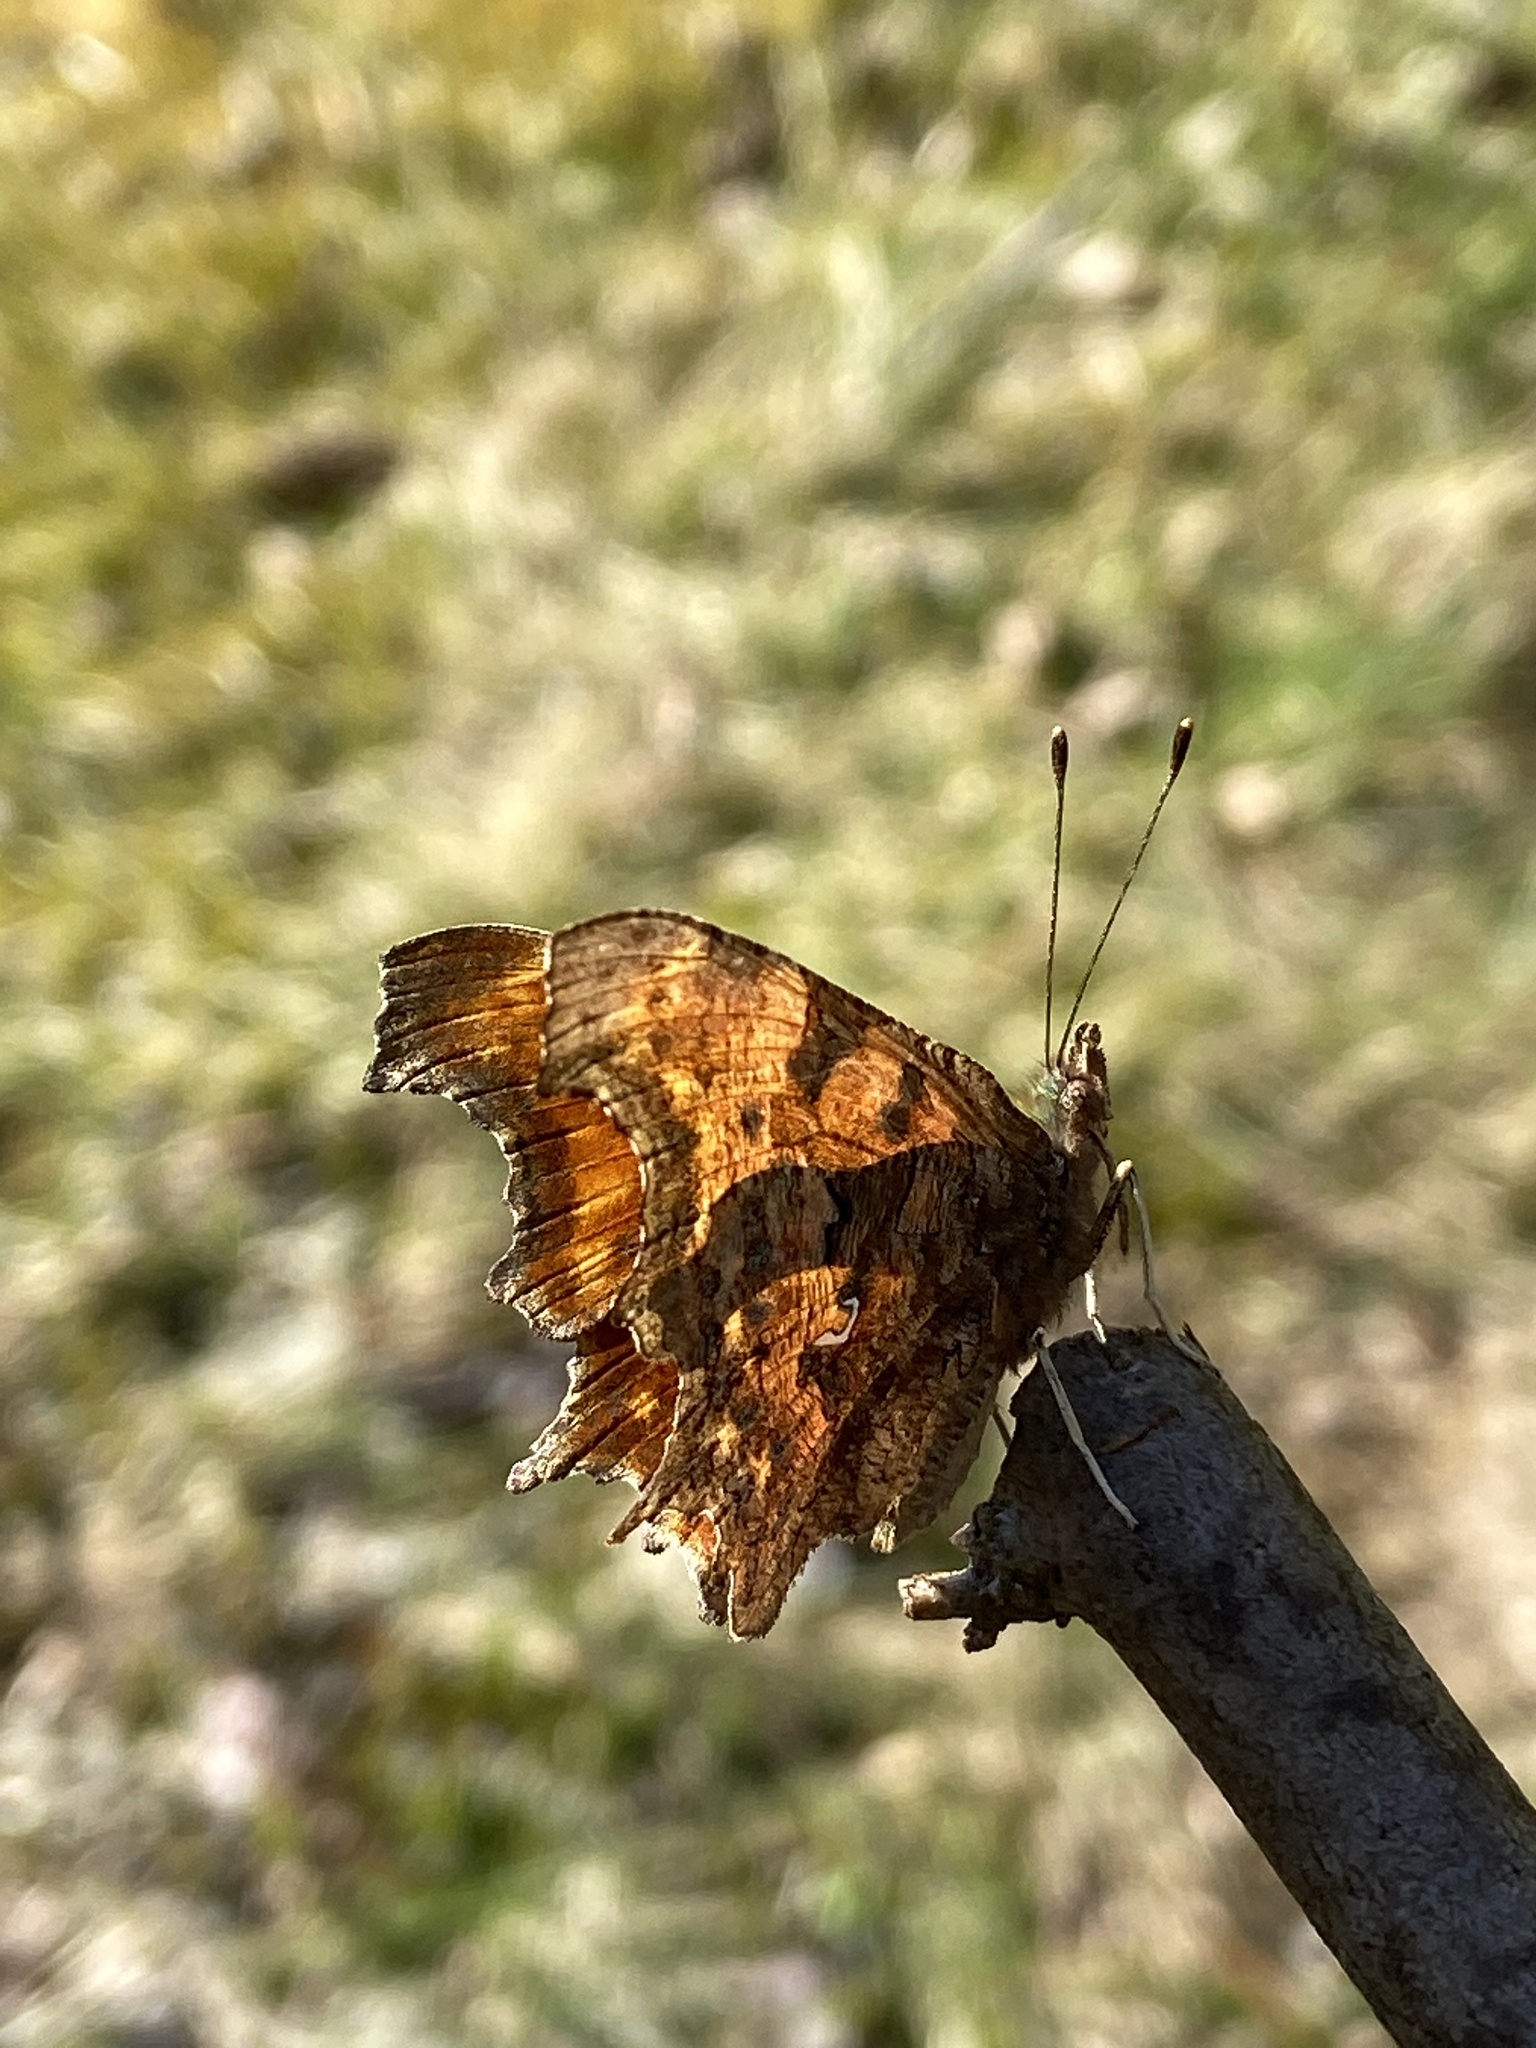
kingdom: Animalia
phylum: Arthropoda
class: Insecta
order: Lepidoptera
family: Nymphalidae
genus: Polygonia
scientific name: Polygonia c-album
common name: Comma
